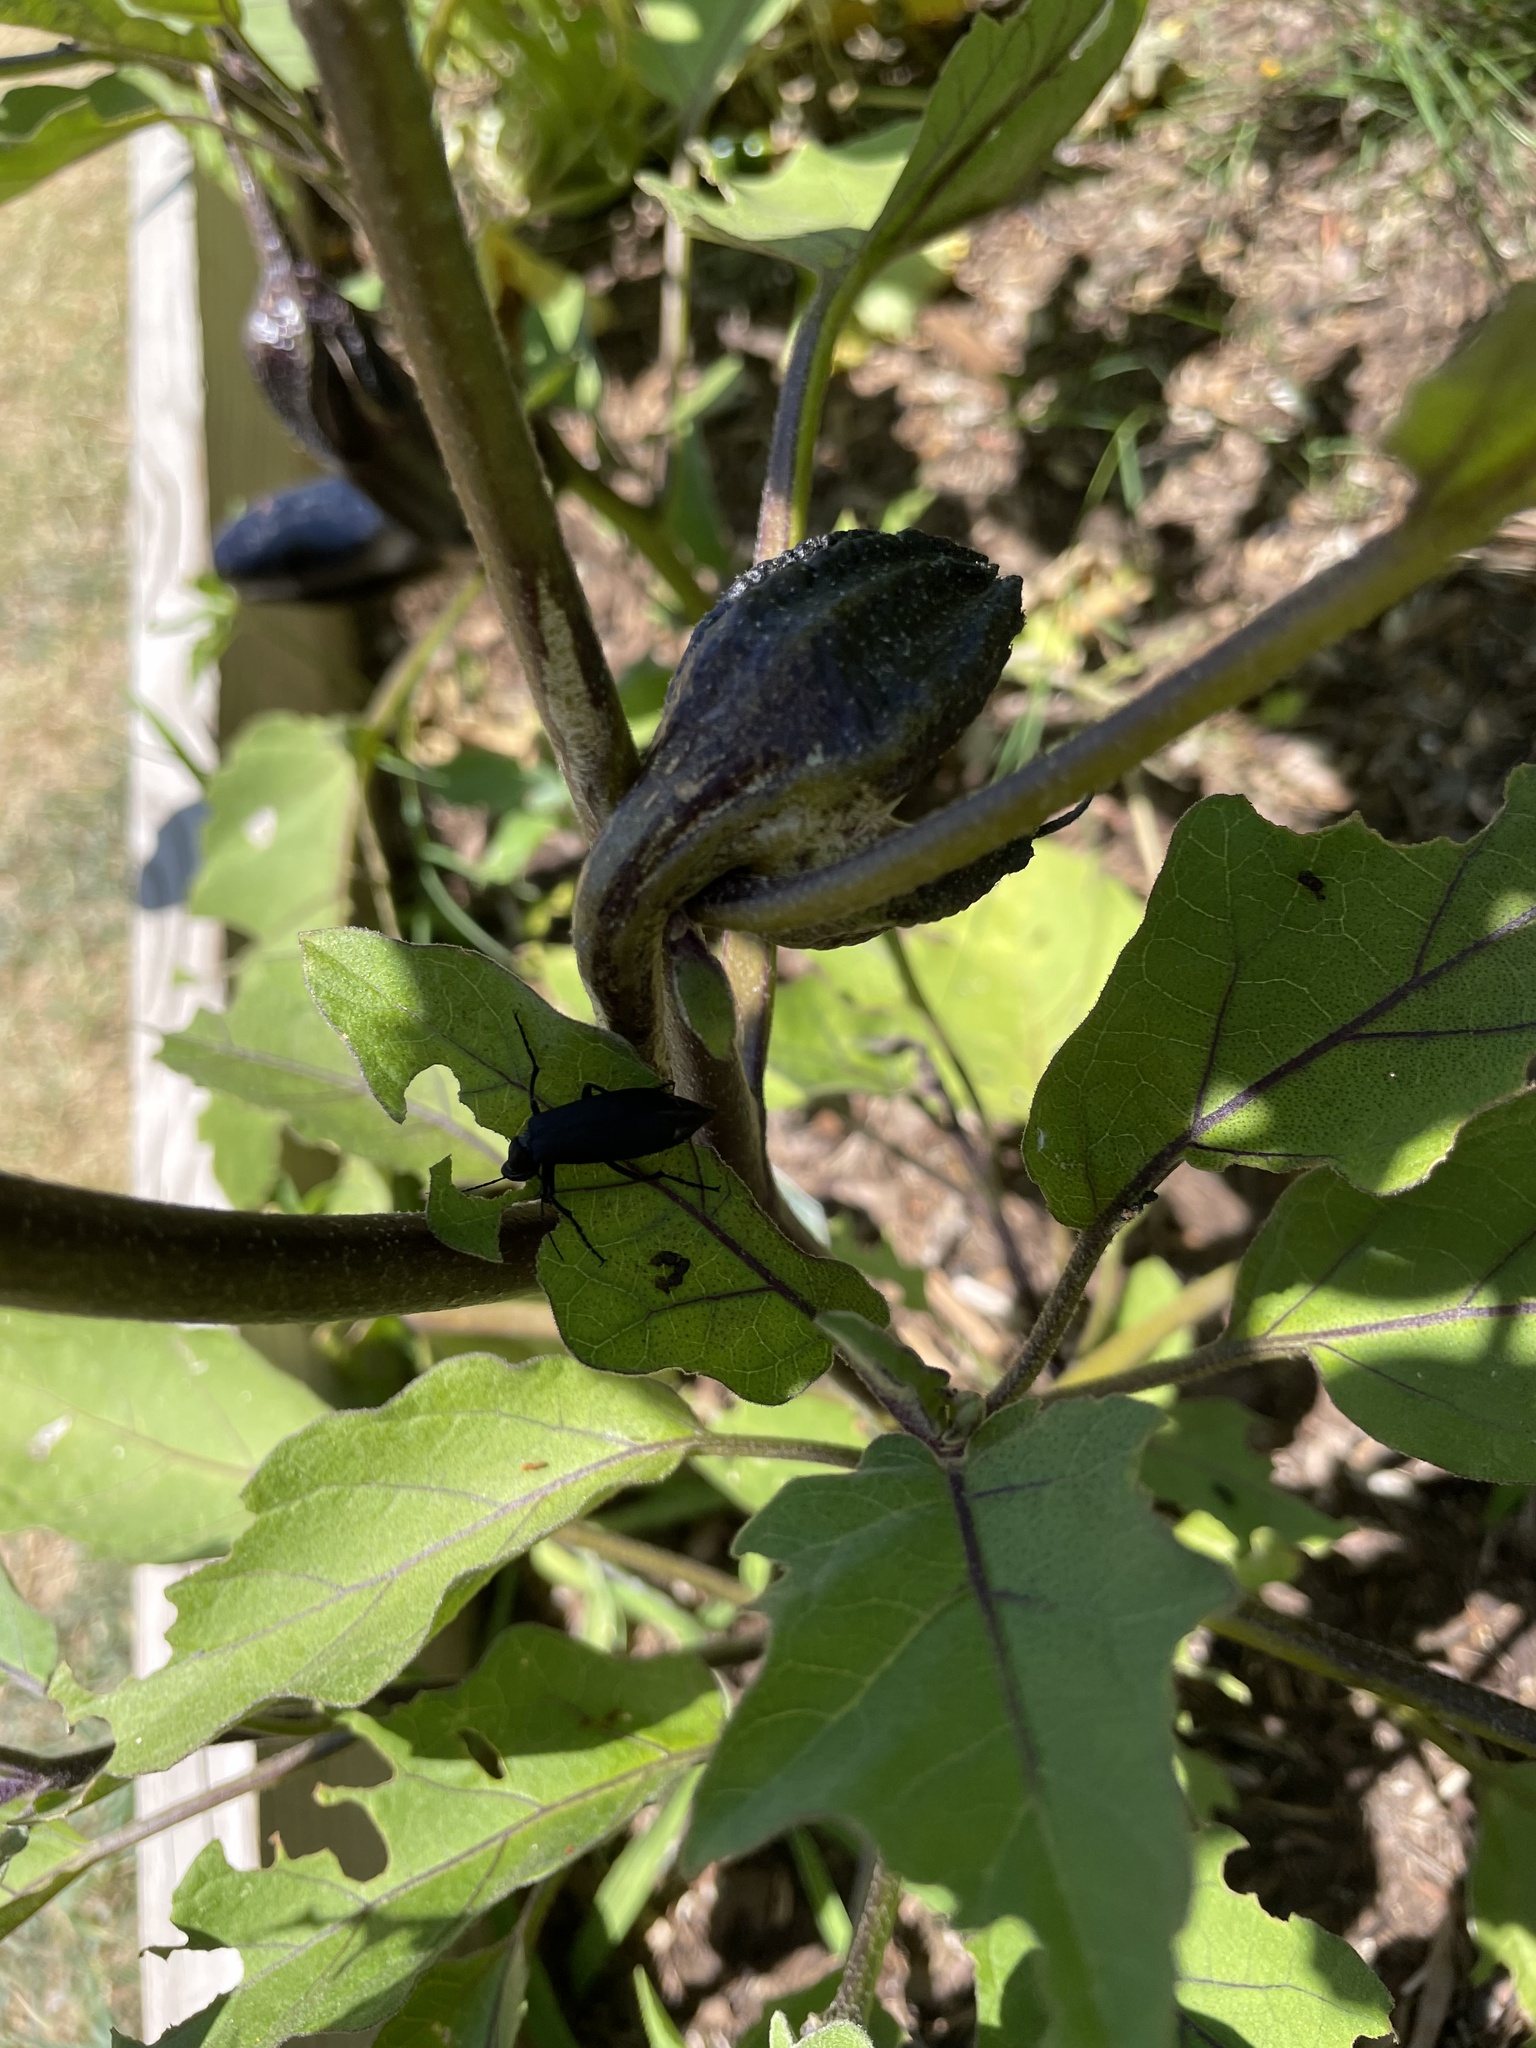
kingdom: Animalia
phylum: Arthropoda
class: Insecta
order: Coleoptera
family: Meloidae
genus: Epicauta
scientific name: Epicauta funebris
